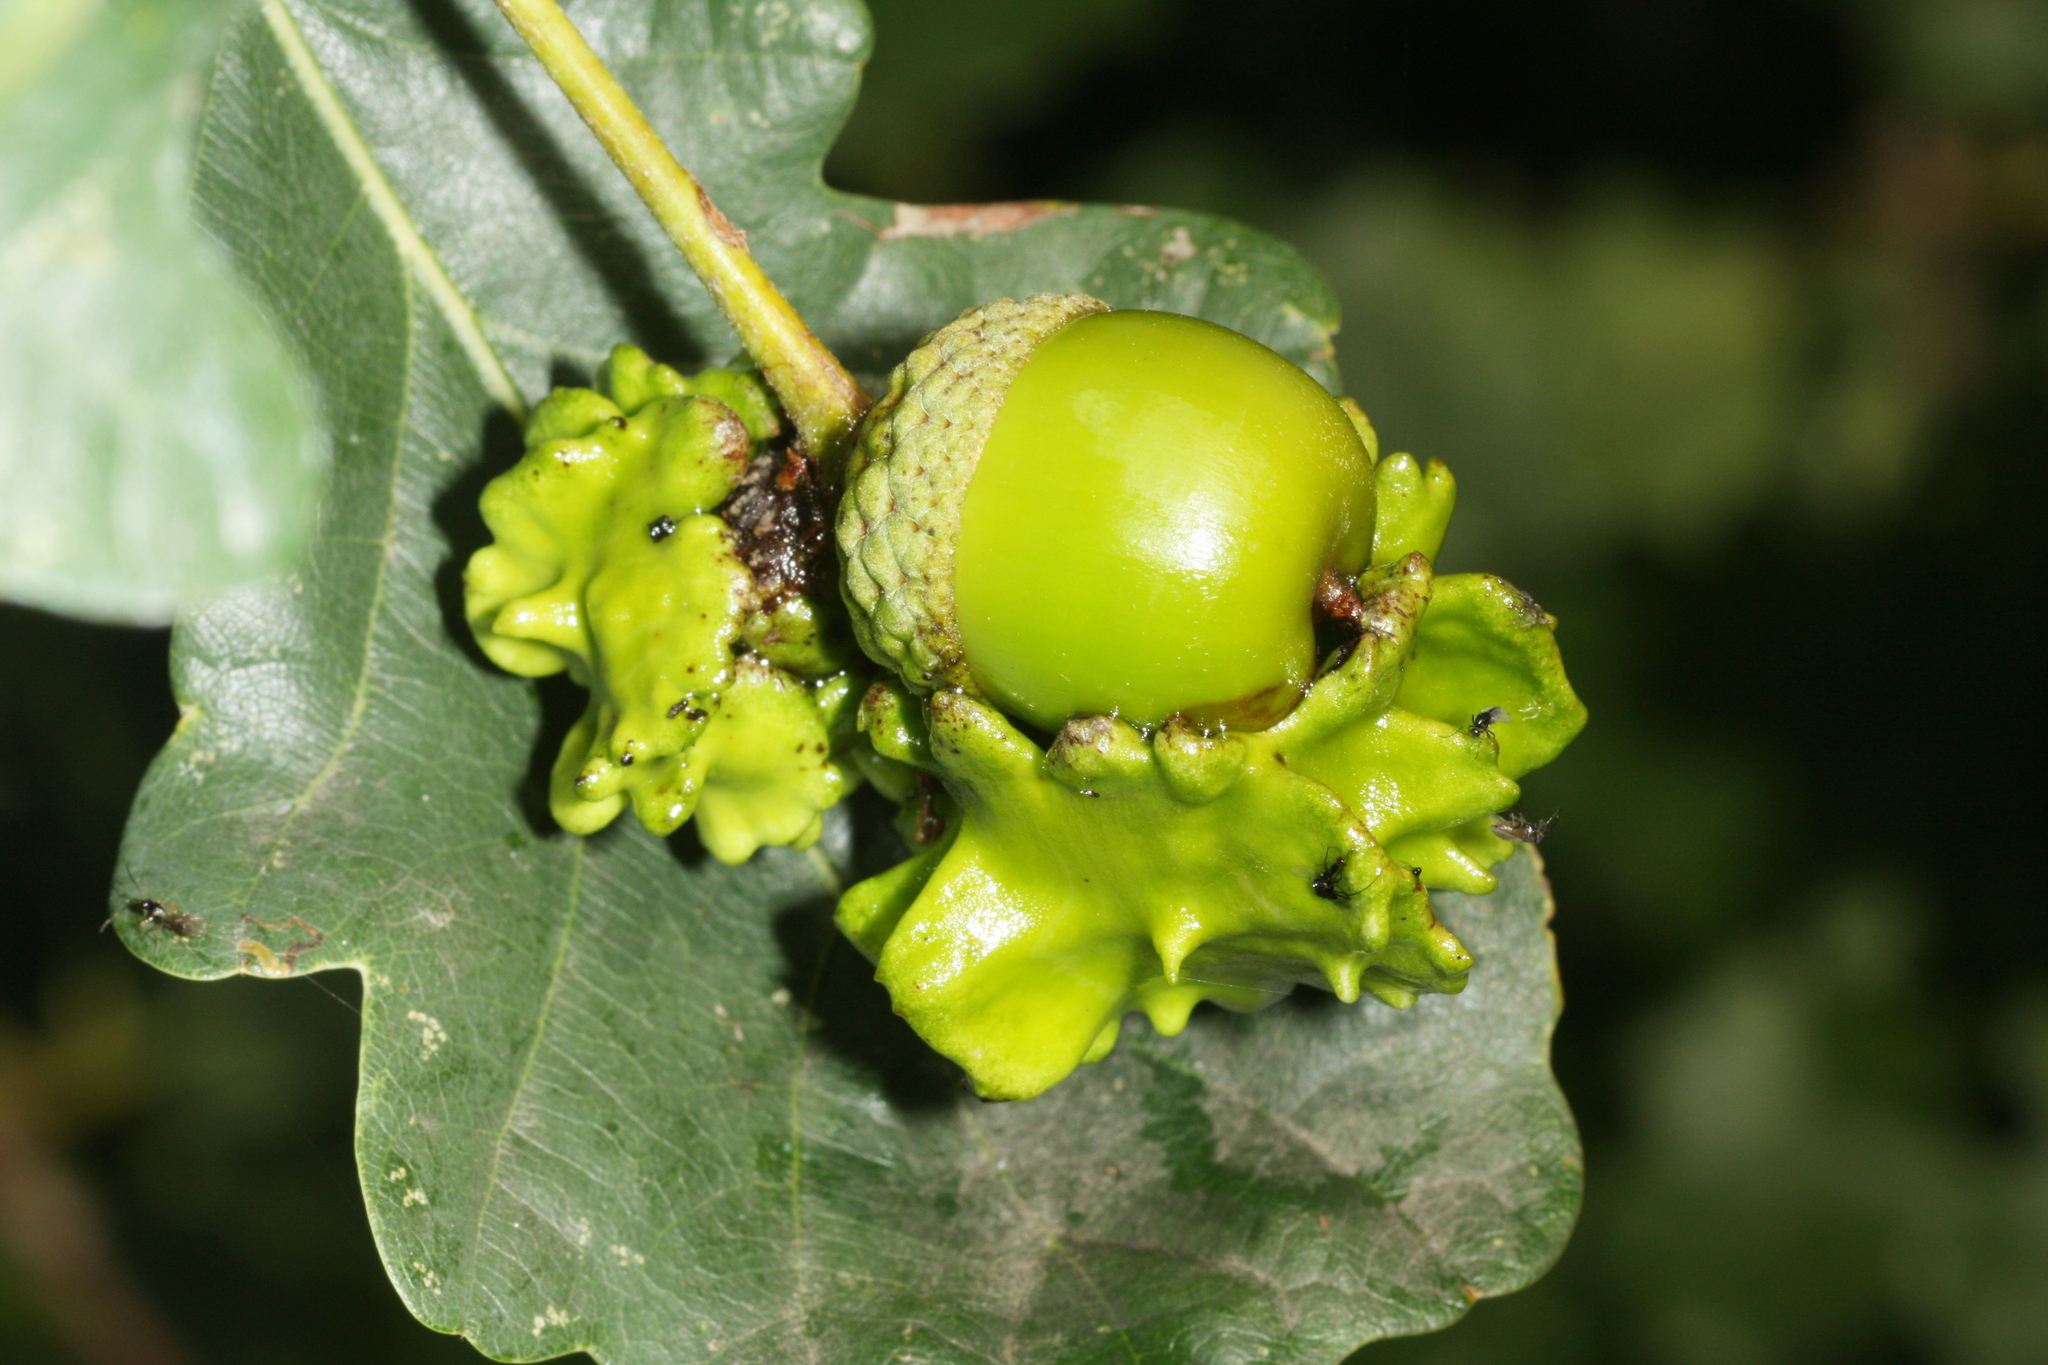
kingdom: Animalia
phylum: Arthropoda
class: Insecta
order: Hymenoptera
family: Cynipidae
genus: Andricus
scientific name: Andricus quercuscalicis
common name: Knopper gall
